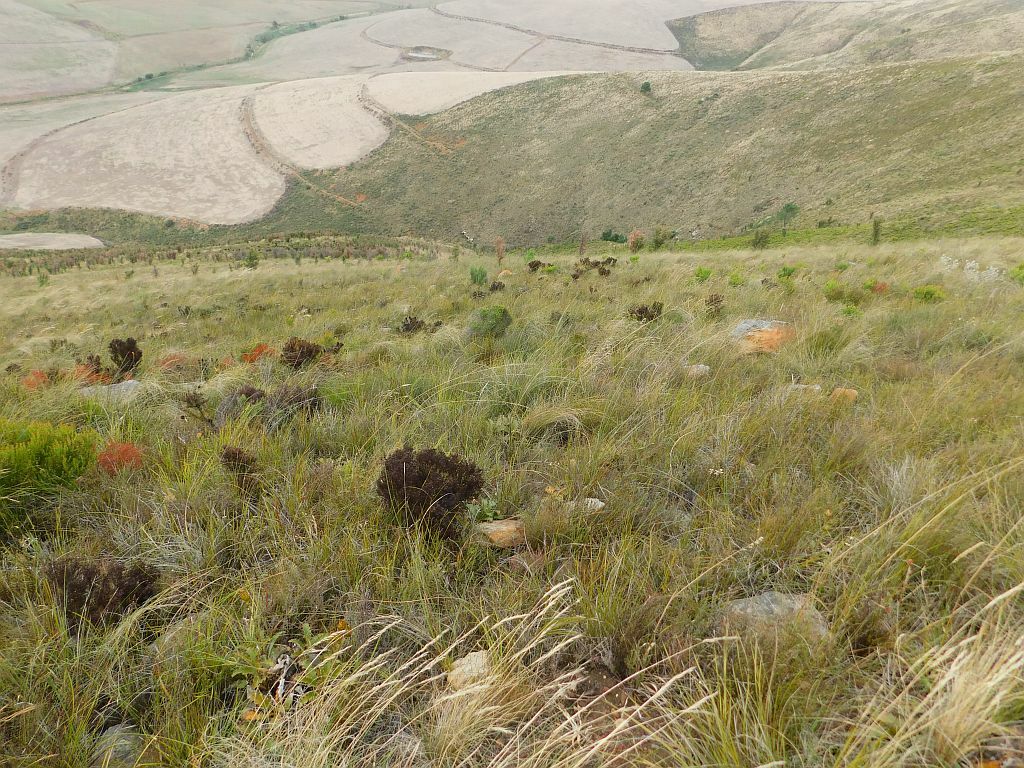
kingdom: Plantae
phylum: Tracheophyta
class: Magnoliopsida
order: Proteales
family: Proteaceae
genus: Leucadendron
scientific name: Leucadendron teretifolium
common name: Needle-leaf conebush
